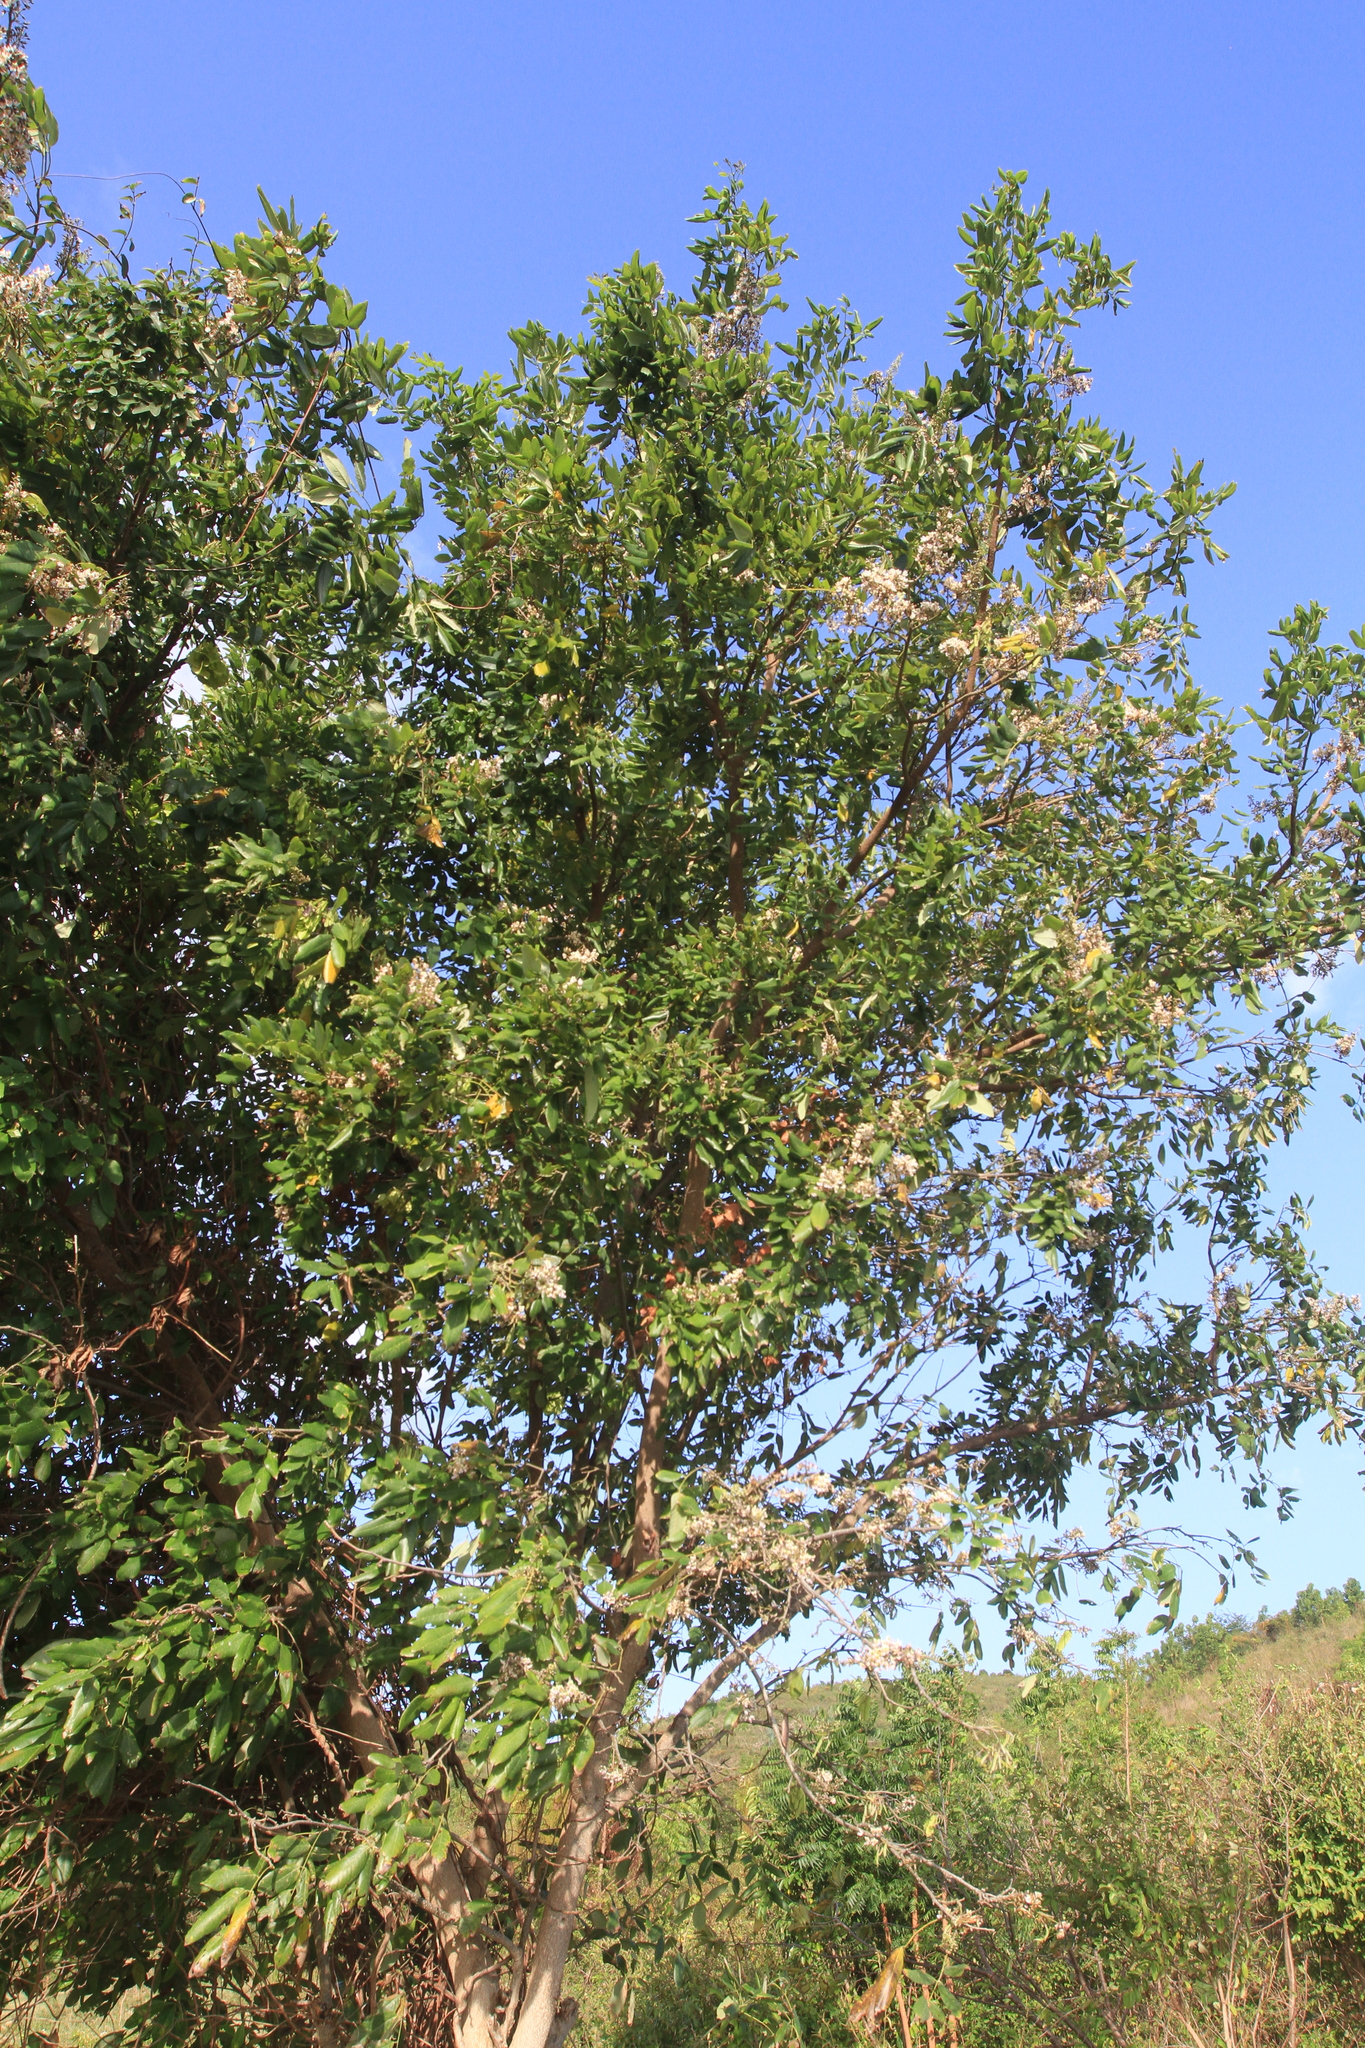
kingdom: Plantae
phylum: Tracheophyta
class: Magnoliopsida
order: Fabales
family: Fabaceae
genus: Piscidia
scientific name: Piscidia piscipula
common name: Florida fishpoison tree
